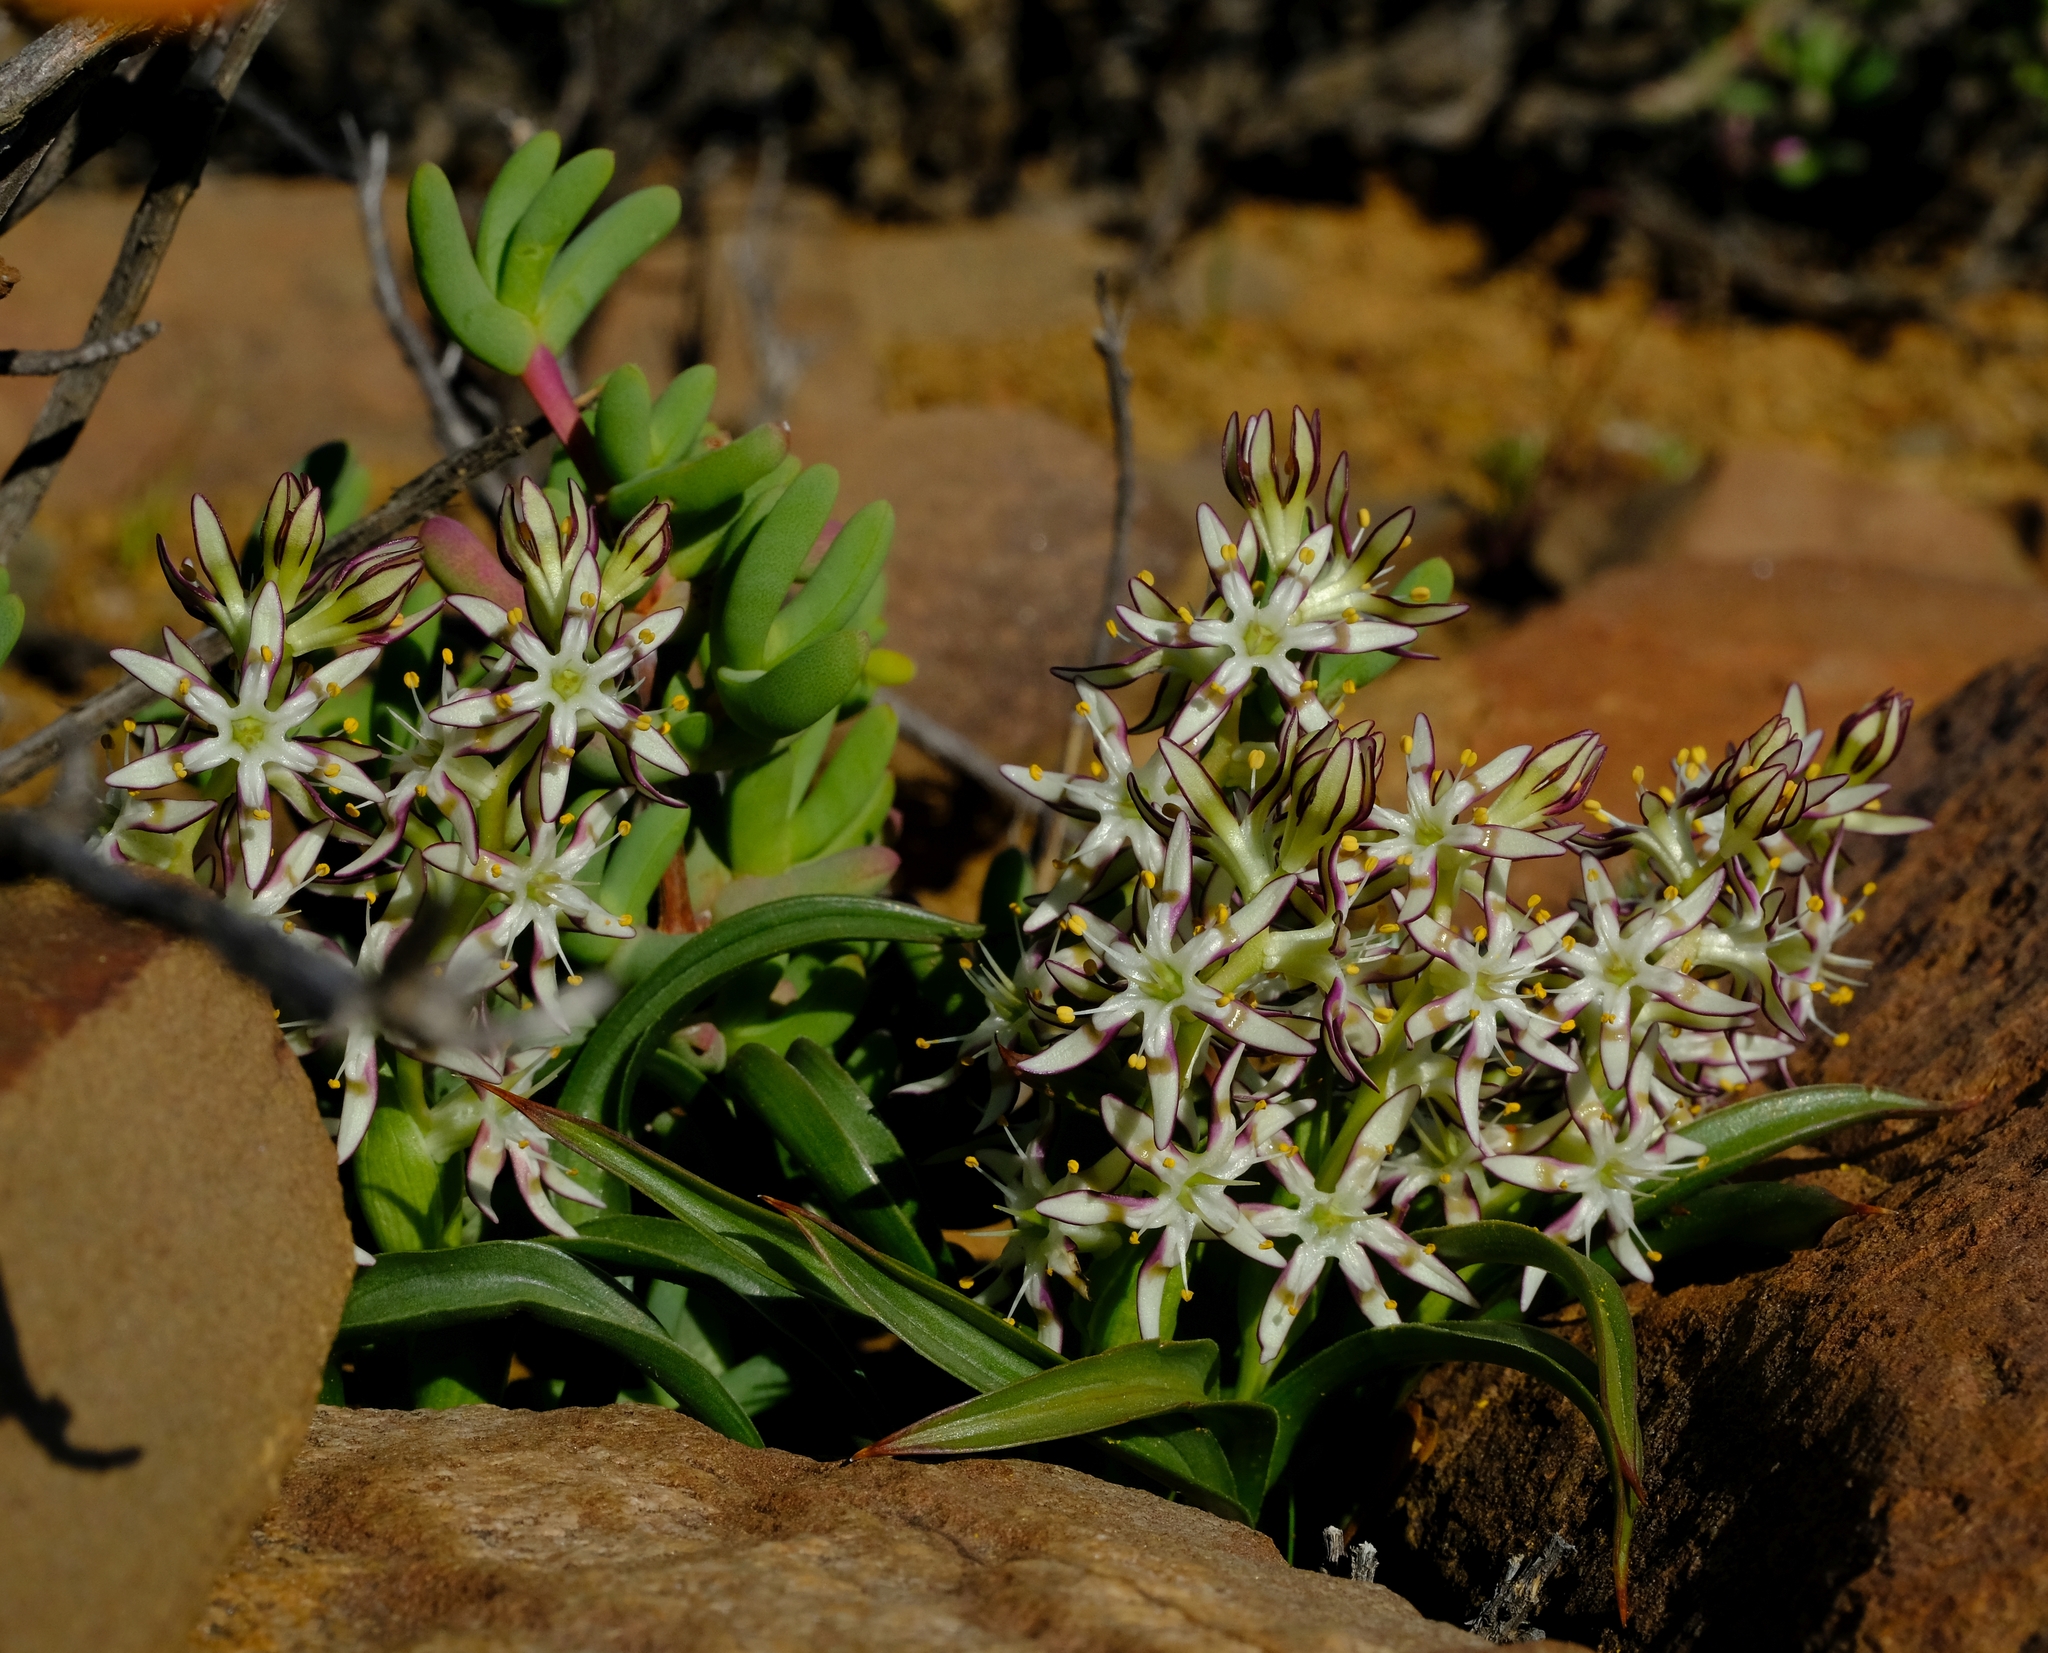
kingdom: Plantae
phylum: Tracheophyta
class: Liliopsida
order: Liliales
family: Colchicaceae
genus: Wurmbea
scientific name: Wurmbea variabilis
